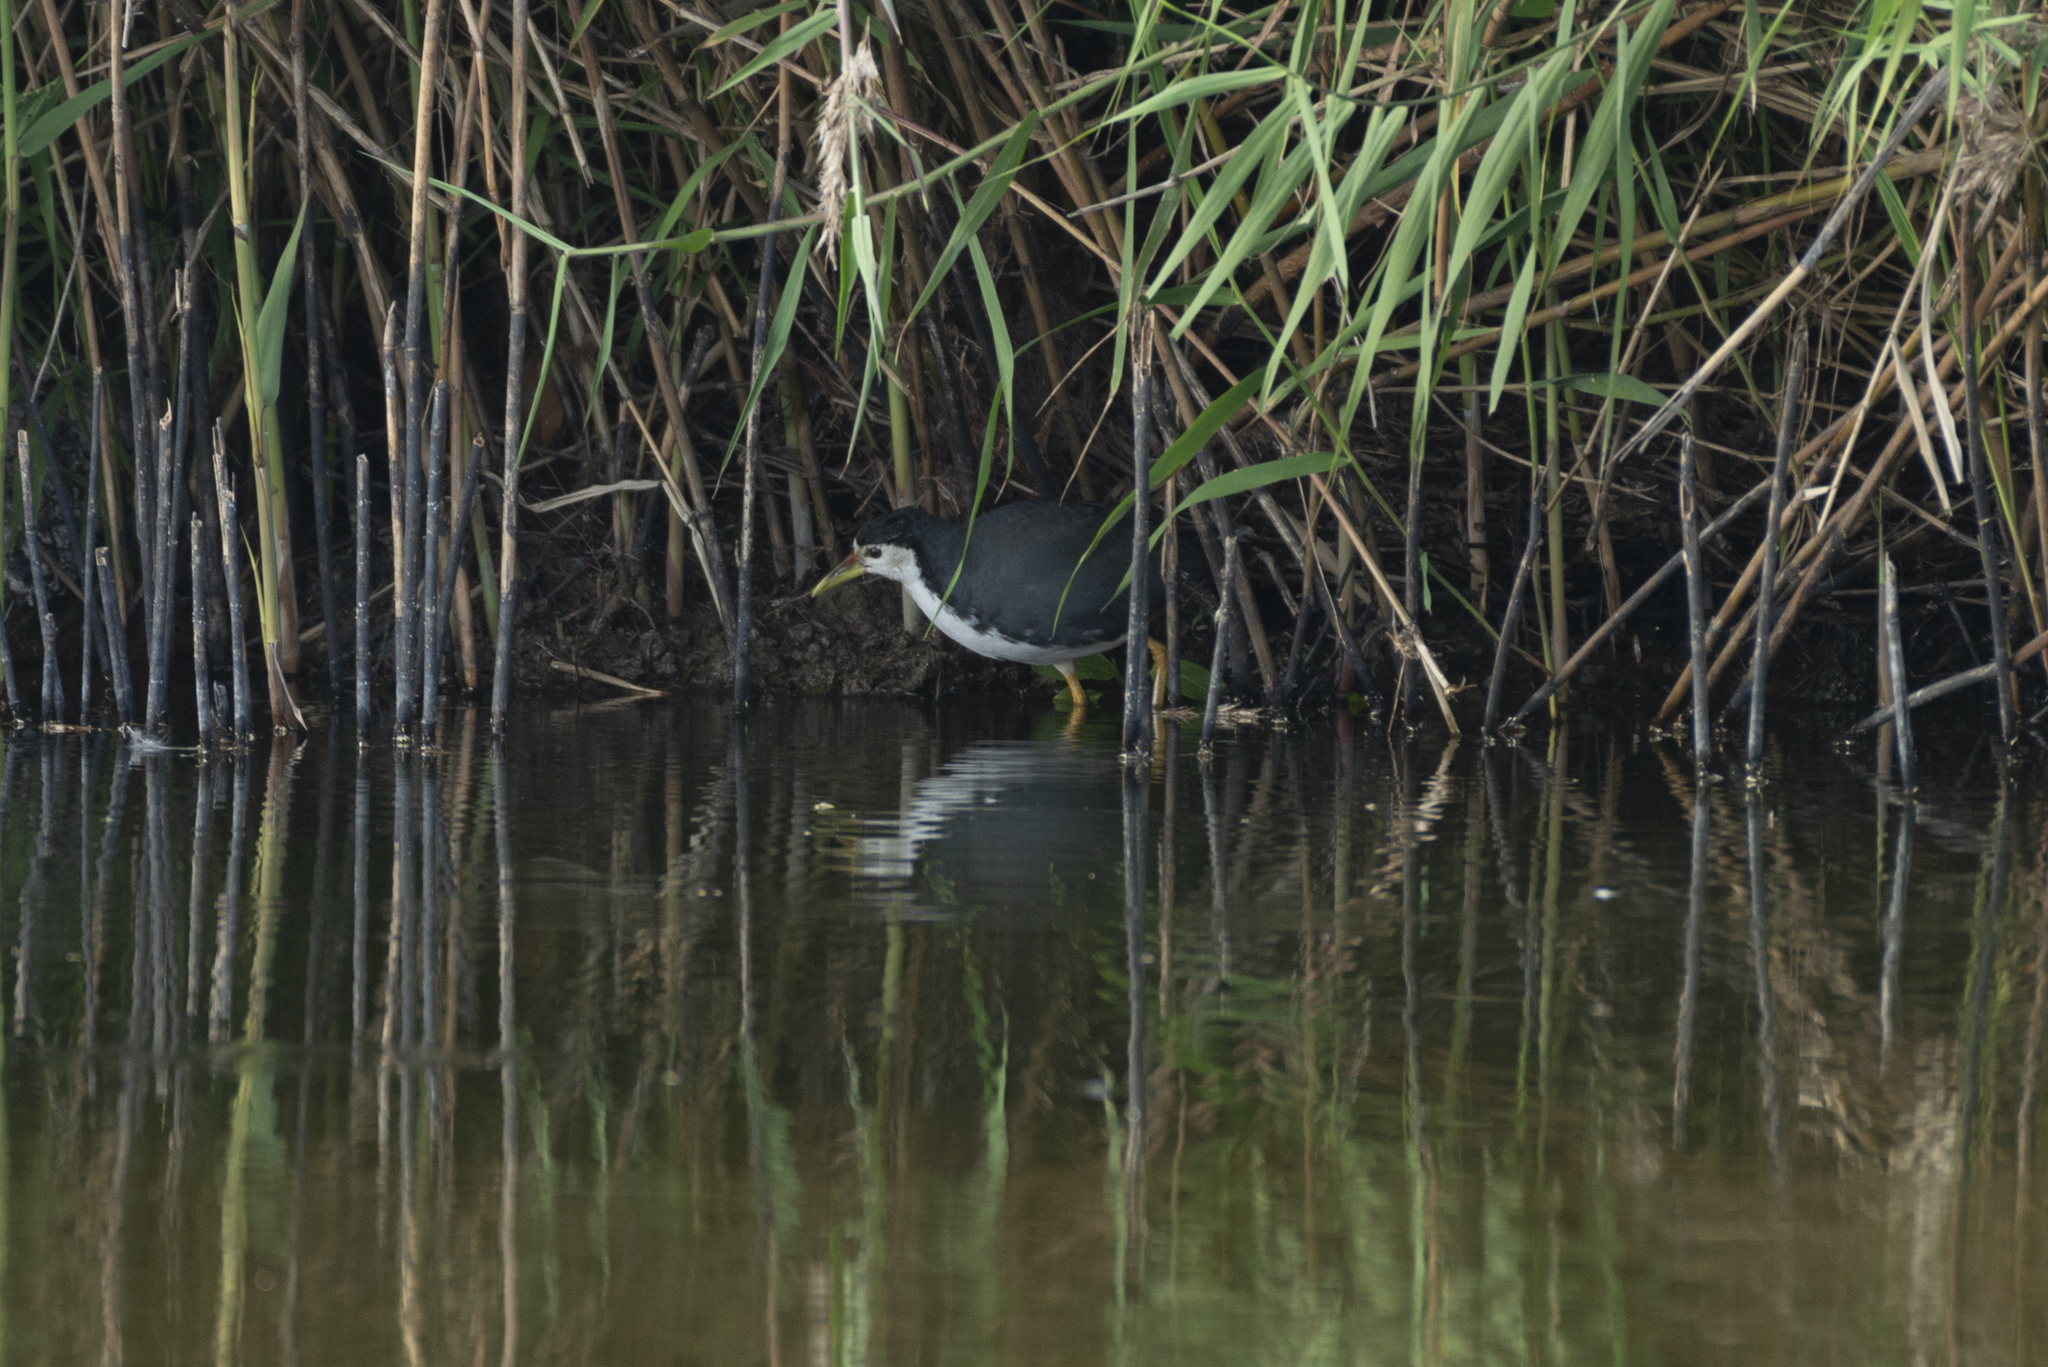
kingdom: Animalia
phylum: Chordata
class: Aves
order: Gruiformes
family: Rallidae
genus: Amaurornis
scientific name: Amaurornis phoenicurus
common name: White-breasted waterhen
